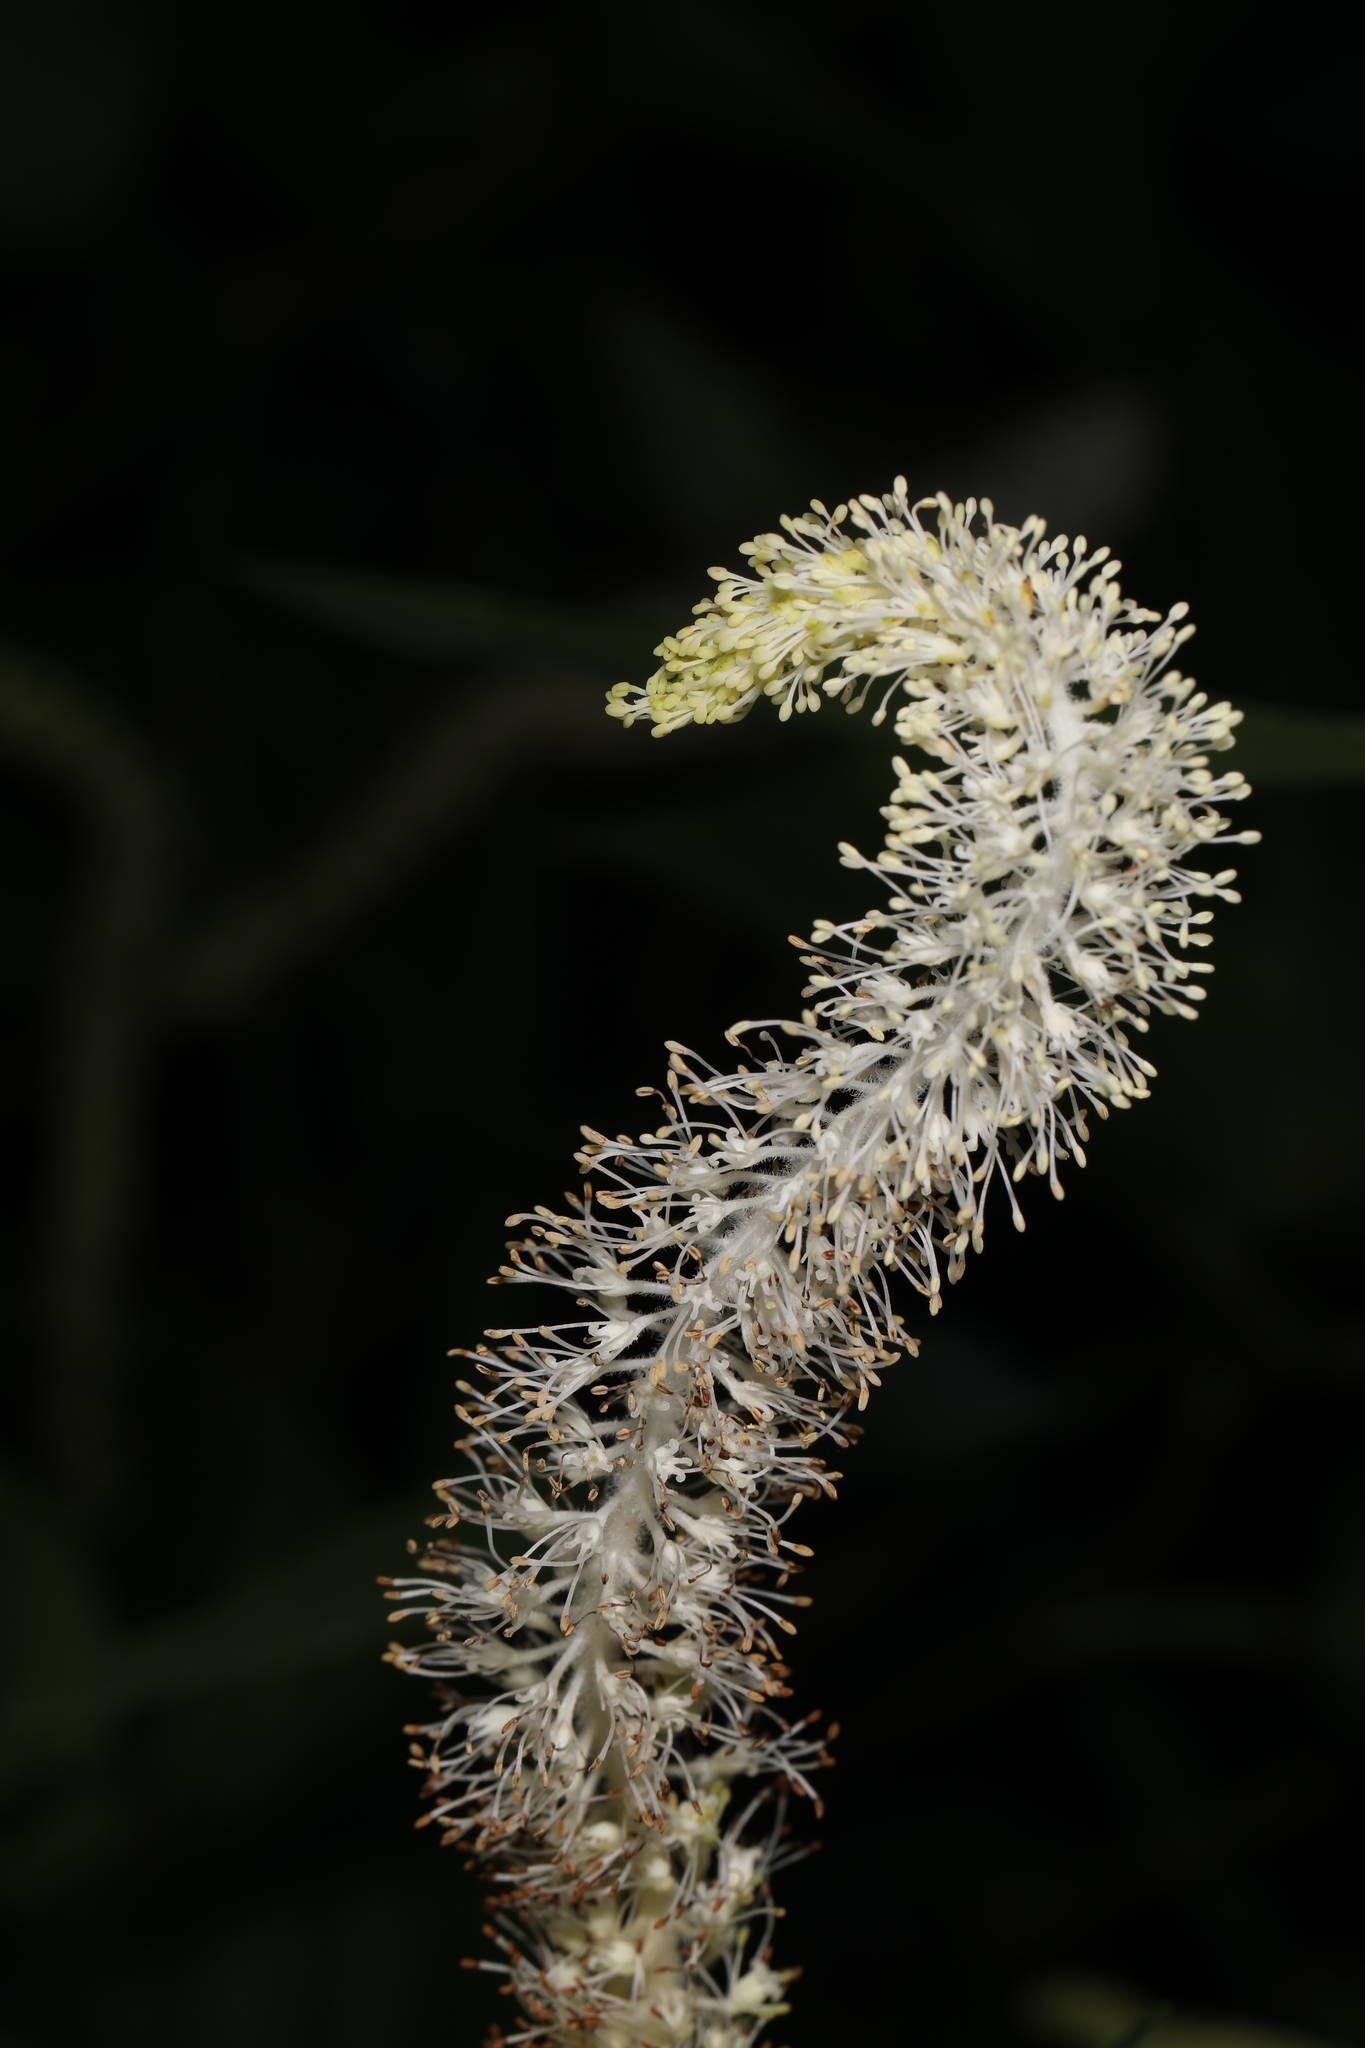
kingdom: Plantae
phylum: Tracheophyta
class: Magnoliopsida
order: Piperales
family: Saururaceae
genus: Saururus
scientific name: Saururus cernuus
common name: Lizard's-tail
